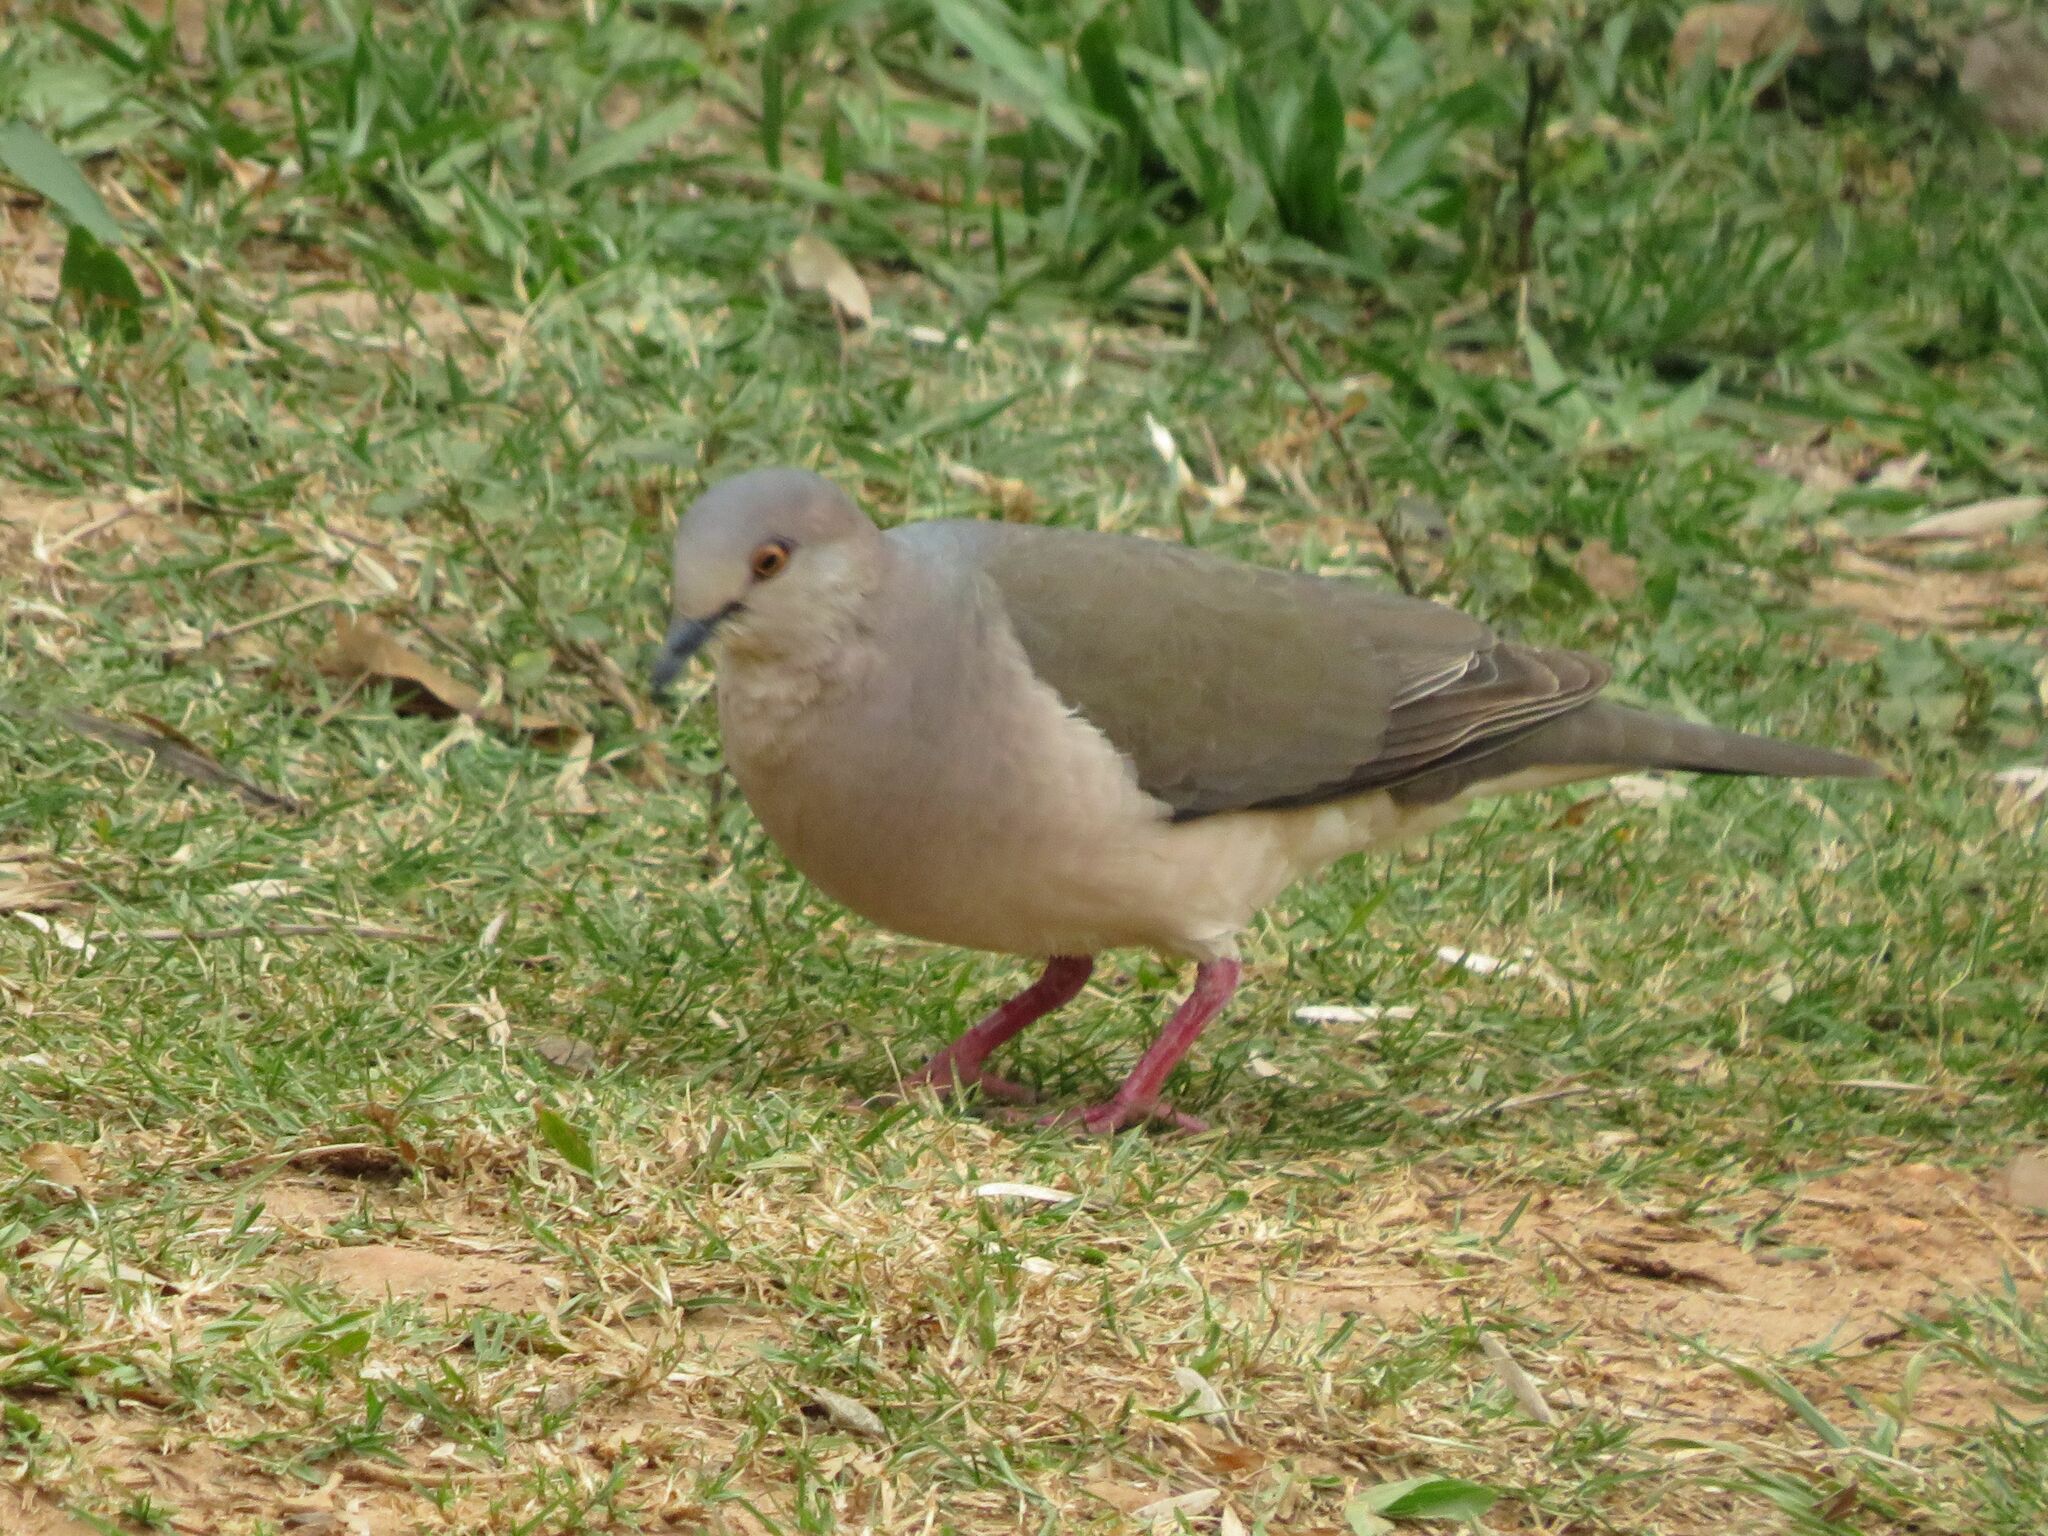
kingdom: Animalia
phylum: Chordata
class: Aves
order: Columbiformes
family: Columbidae
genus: Leptotila
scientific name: Leptotila verreauxi
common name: White-tipped dove
